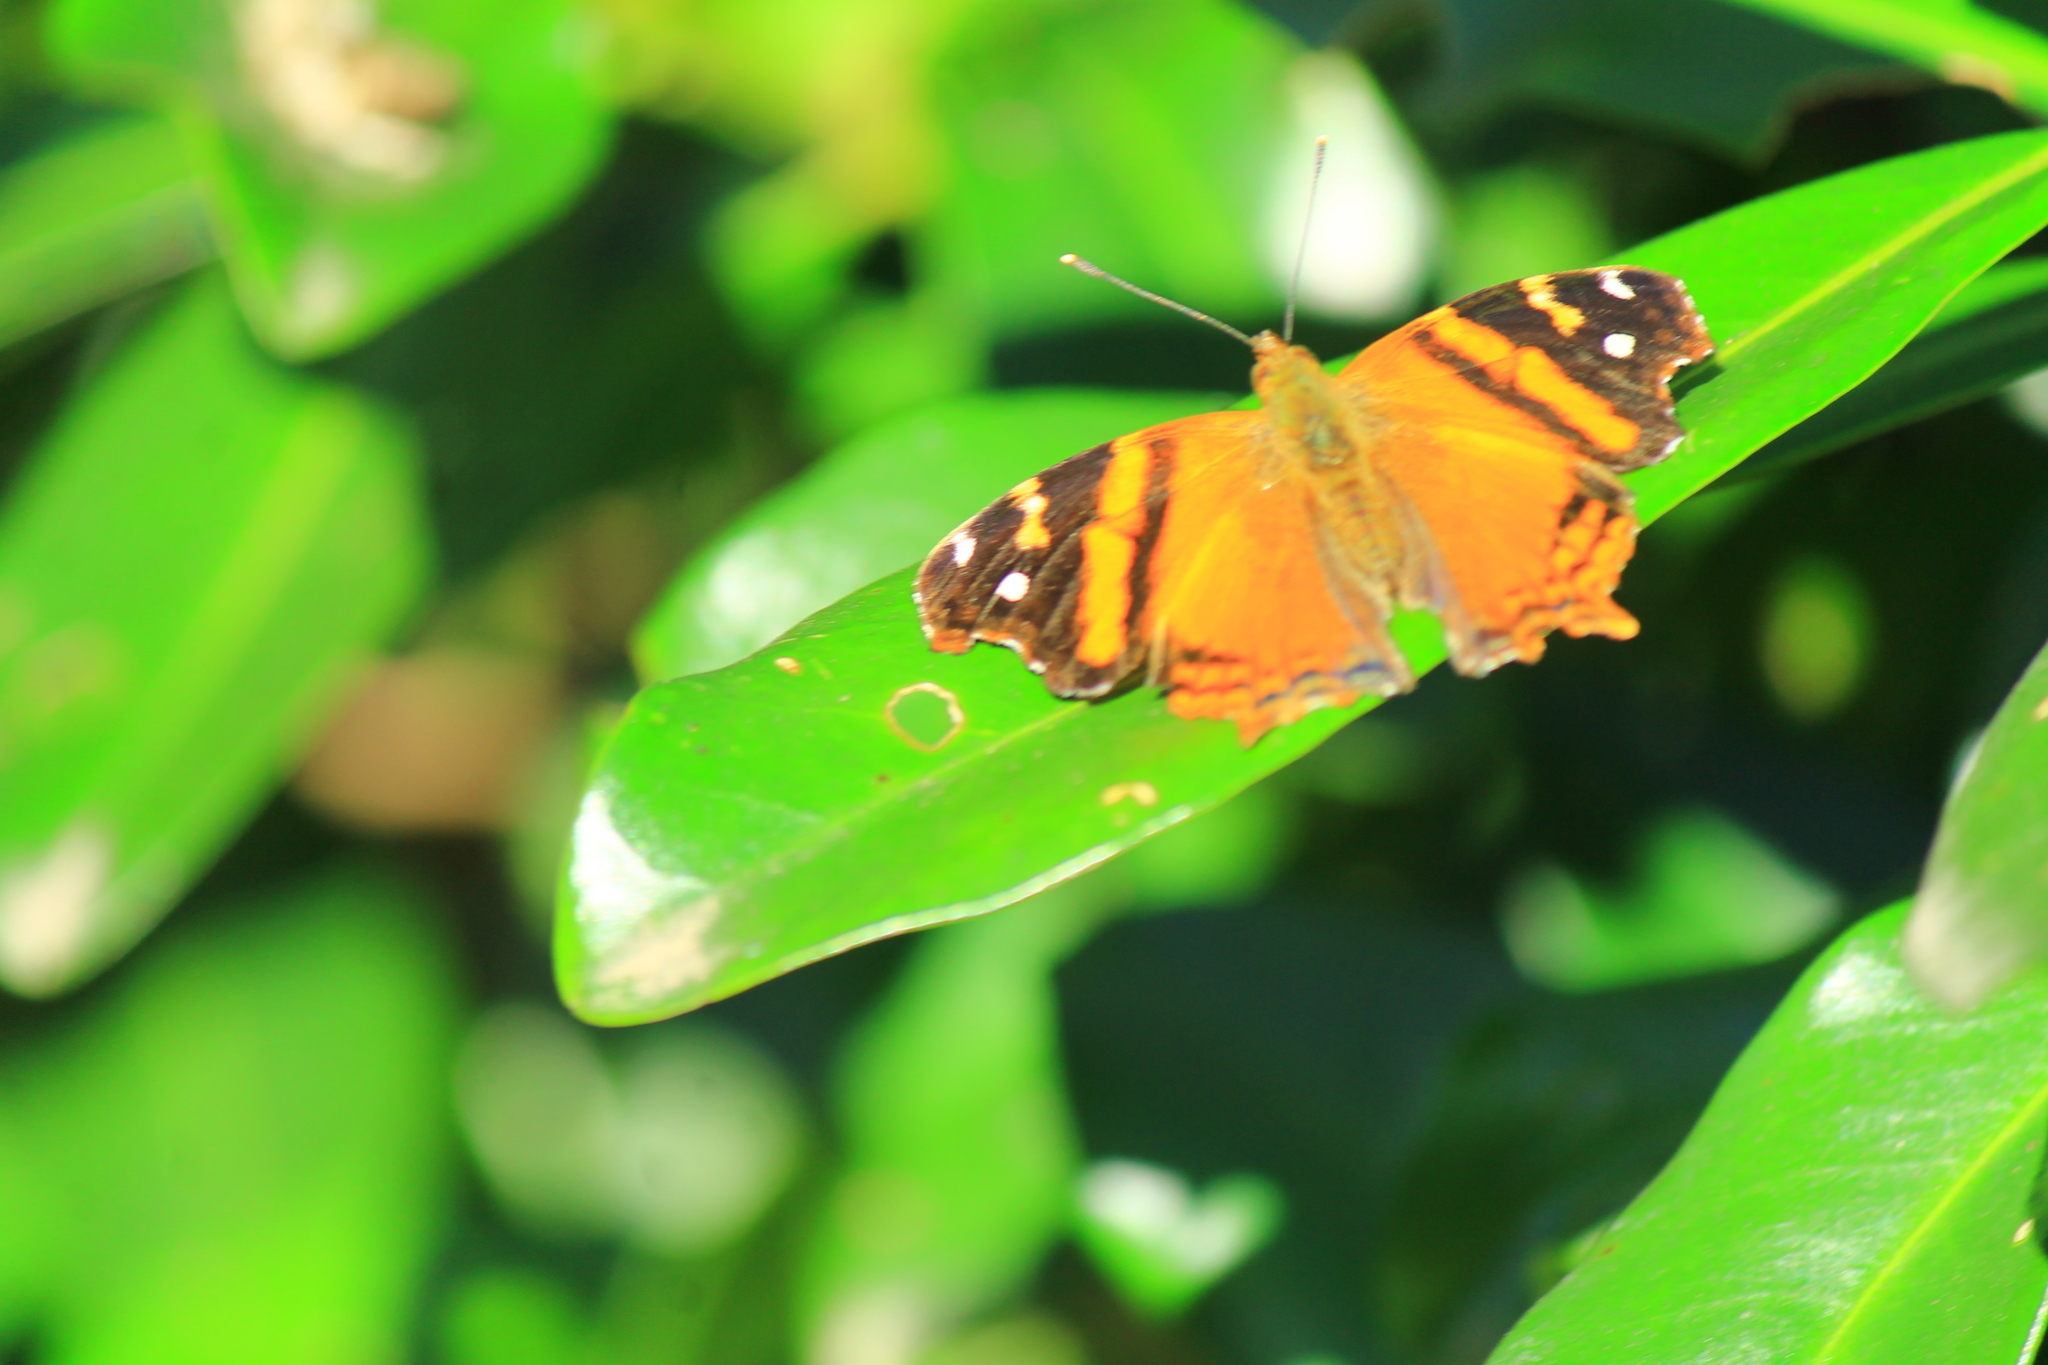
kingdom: Animalia
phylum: Arthropoda
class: Insecta
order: Lepidoptera
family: Nymphalidae
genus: Hypanartia
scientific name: Hypanartia bella
